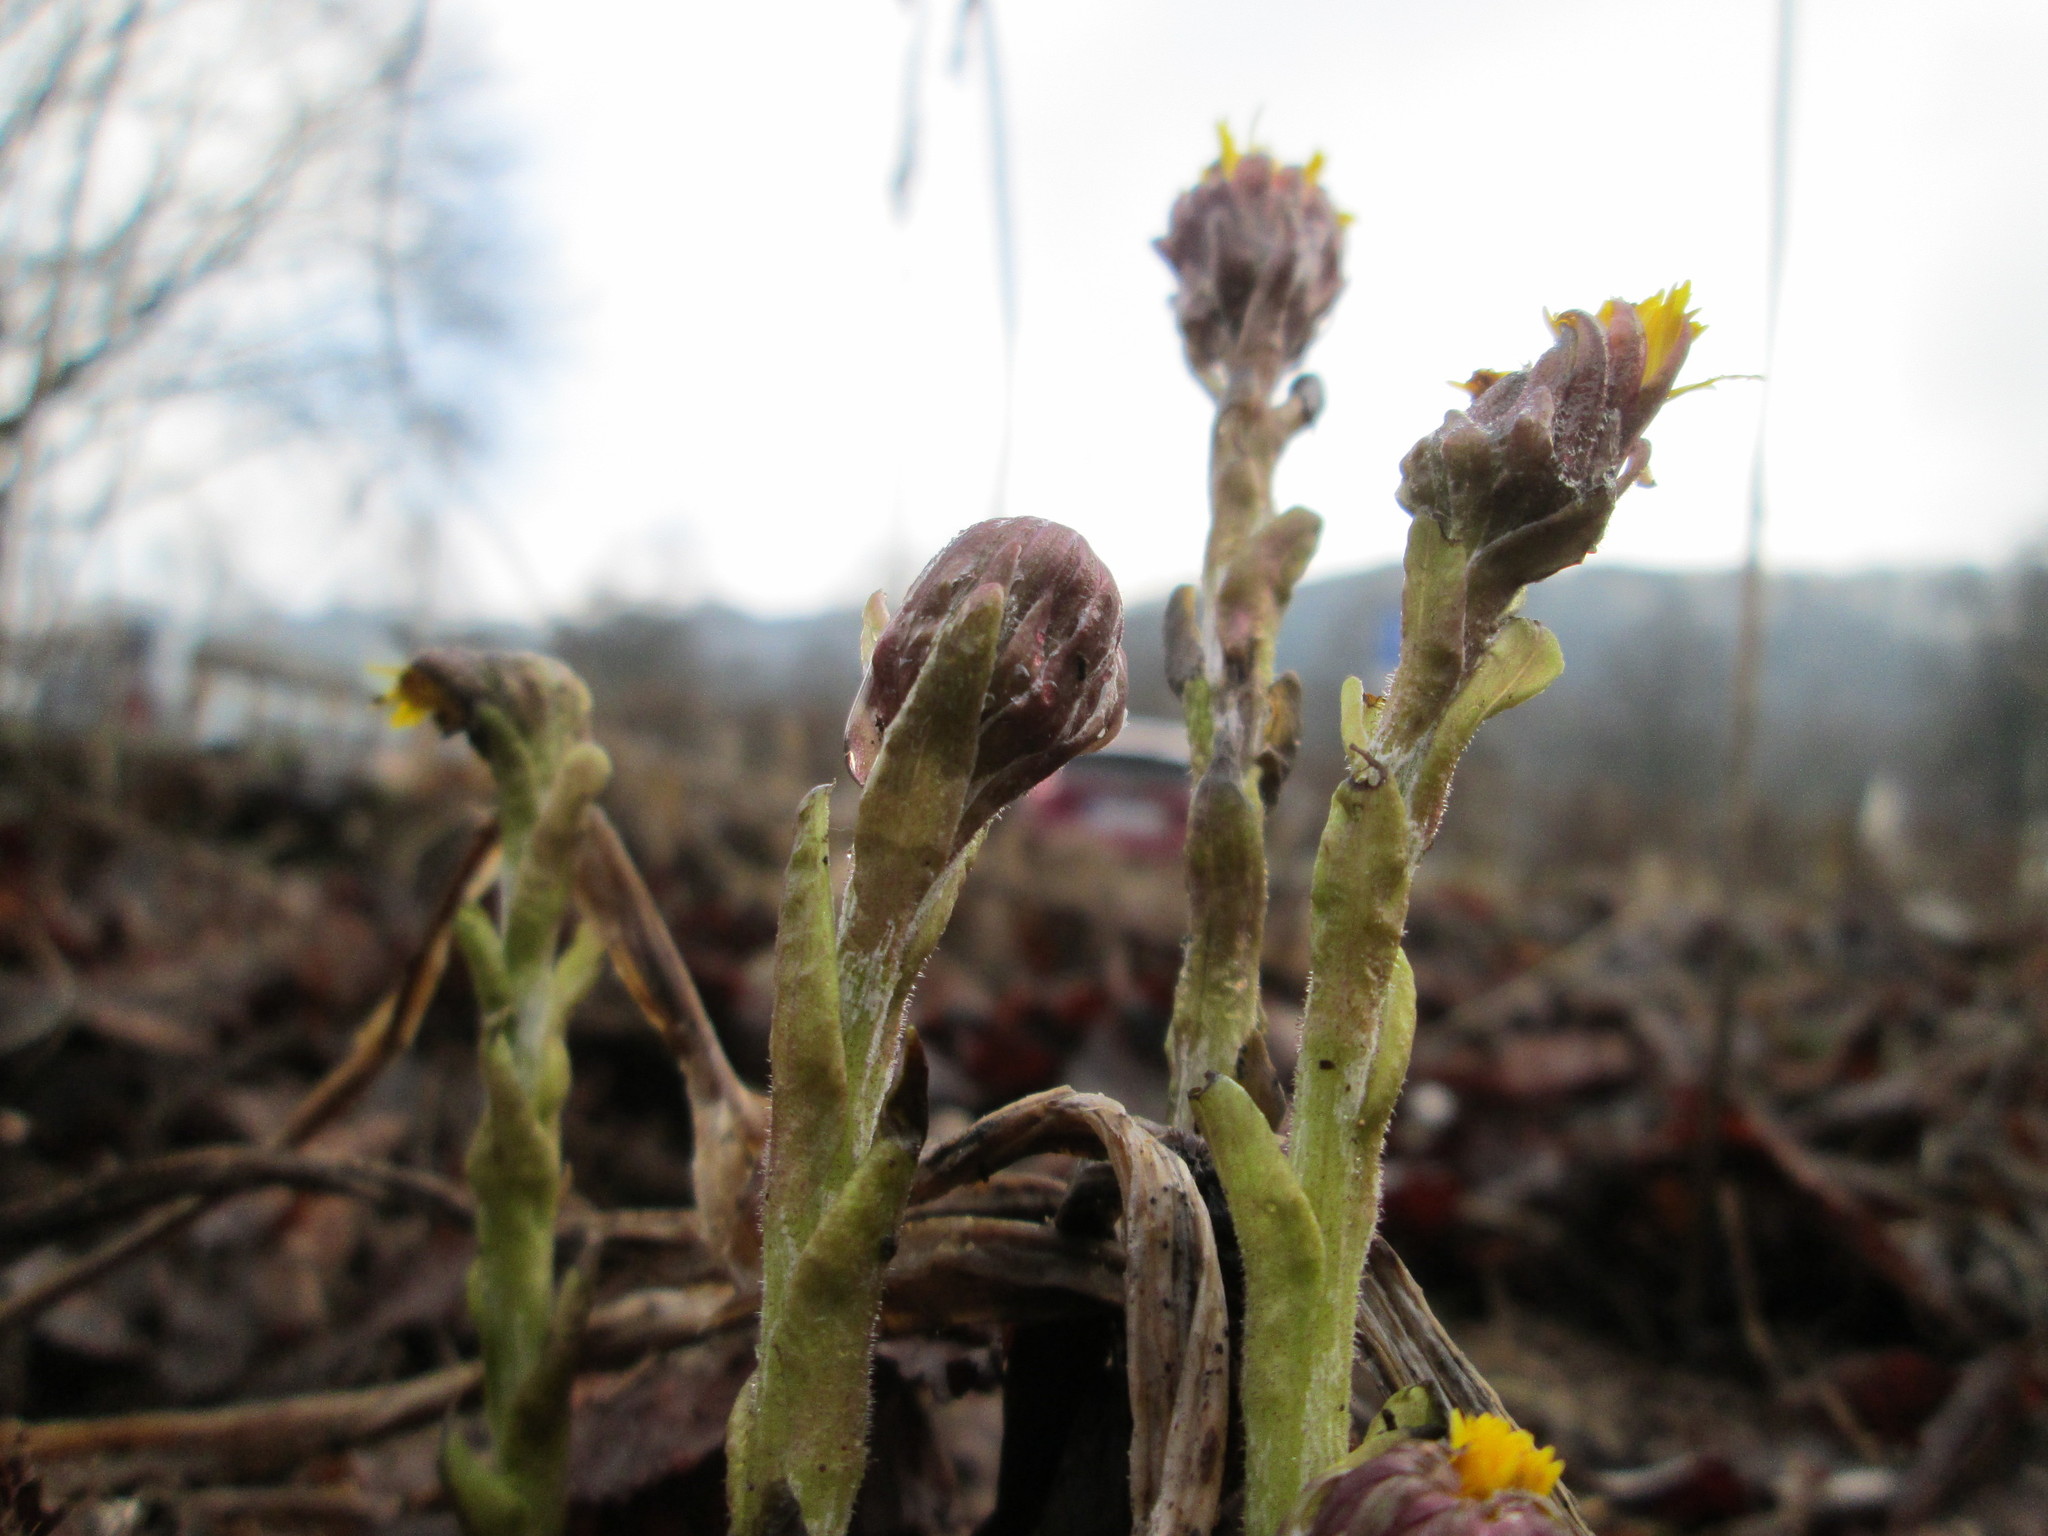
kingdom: Plantae
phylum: Tracheophyta
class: Magnoliopsida
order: Asterales
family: Asteraceae
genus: Tussilago
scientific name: Tussilago farfara
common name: Coltsfoot
